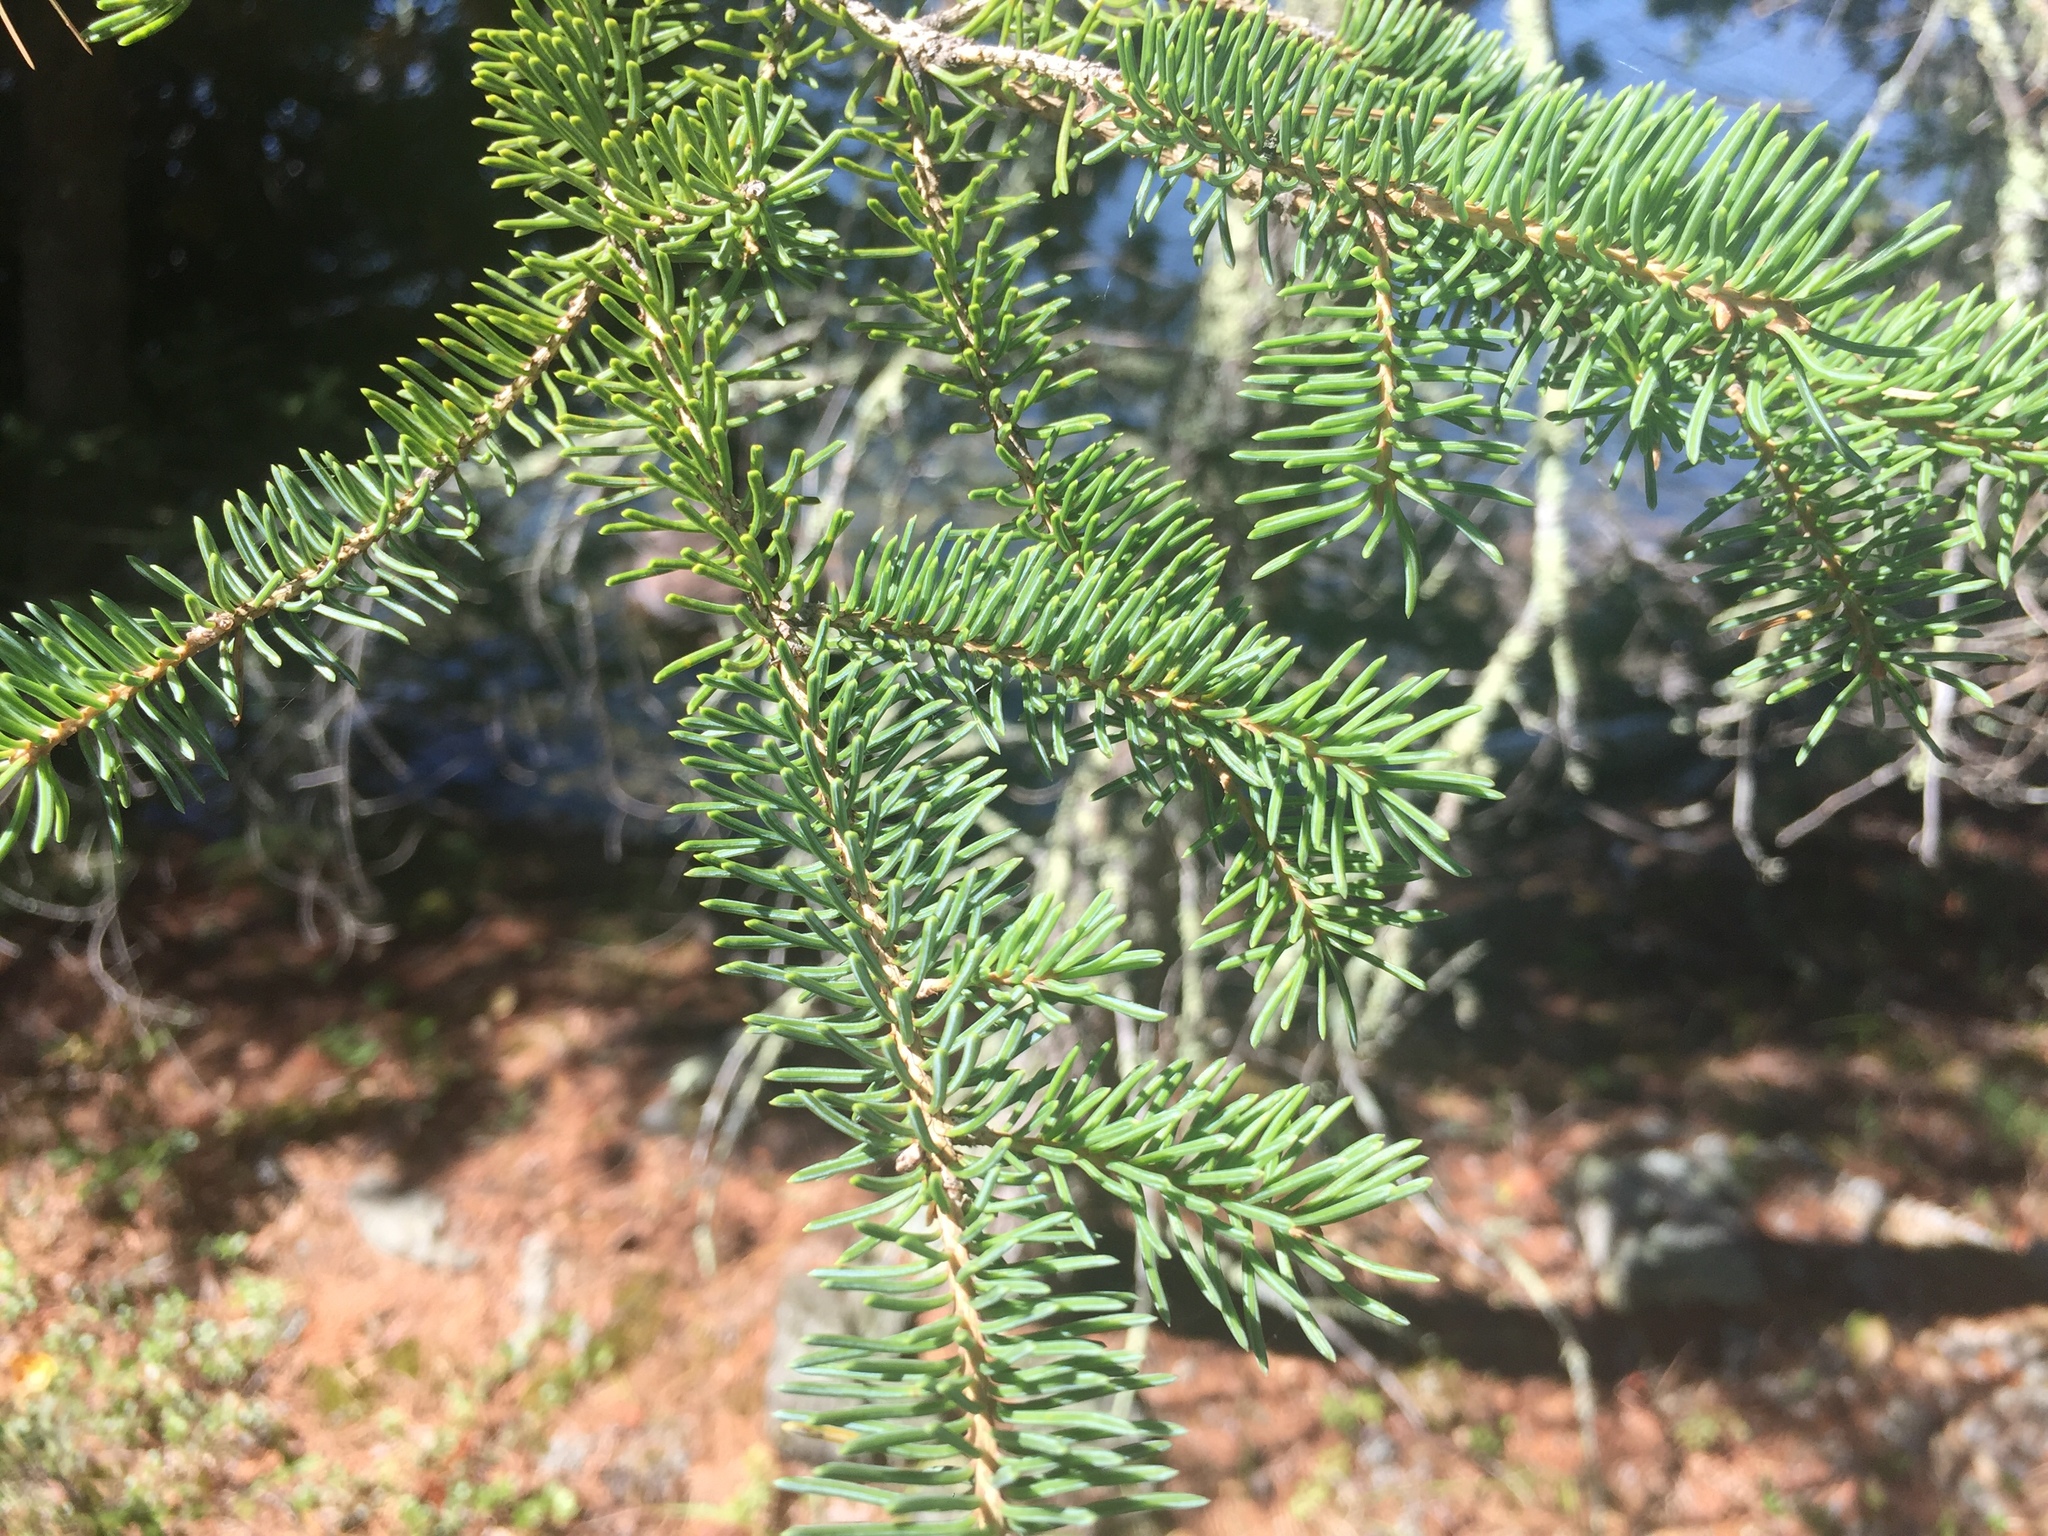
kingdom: Plantae
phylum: Tracheophyta
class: Pinopsida
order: Pinales
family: Pinaceae
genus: Picea
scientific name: Picea glauca
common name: White spruce
